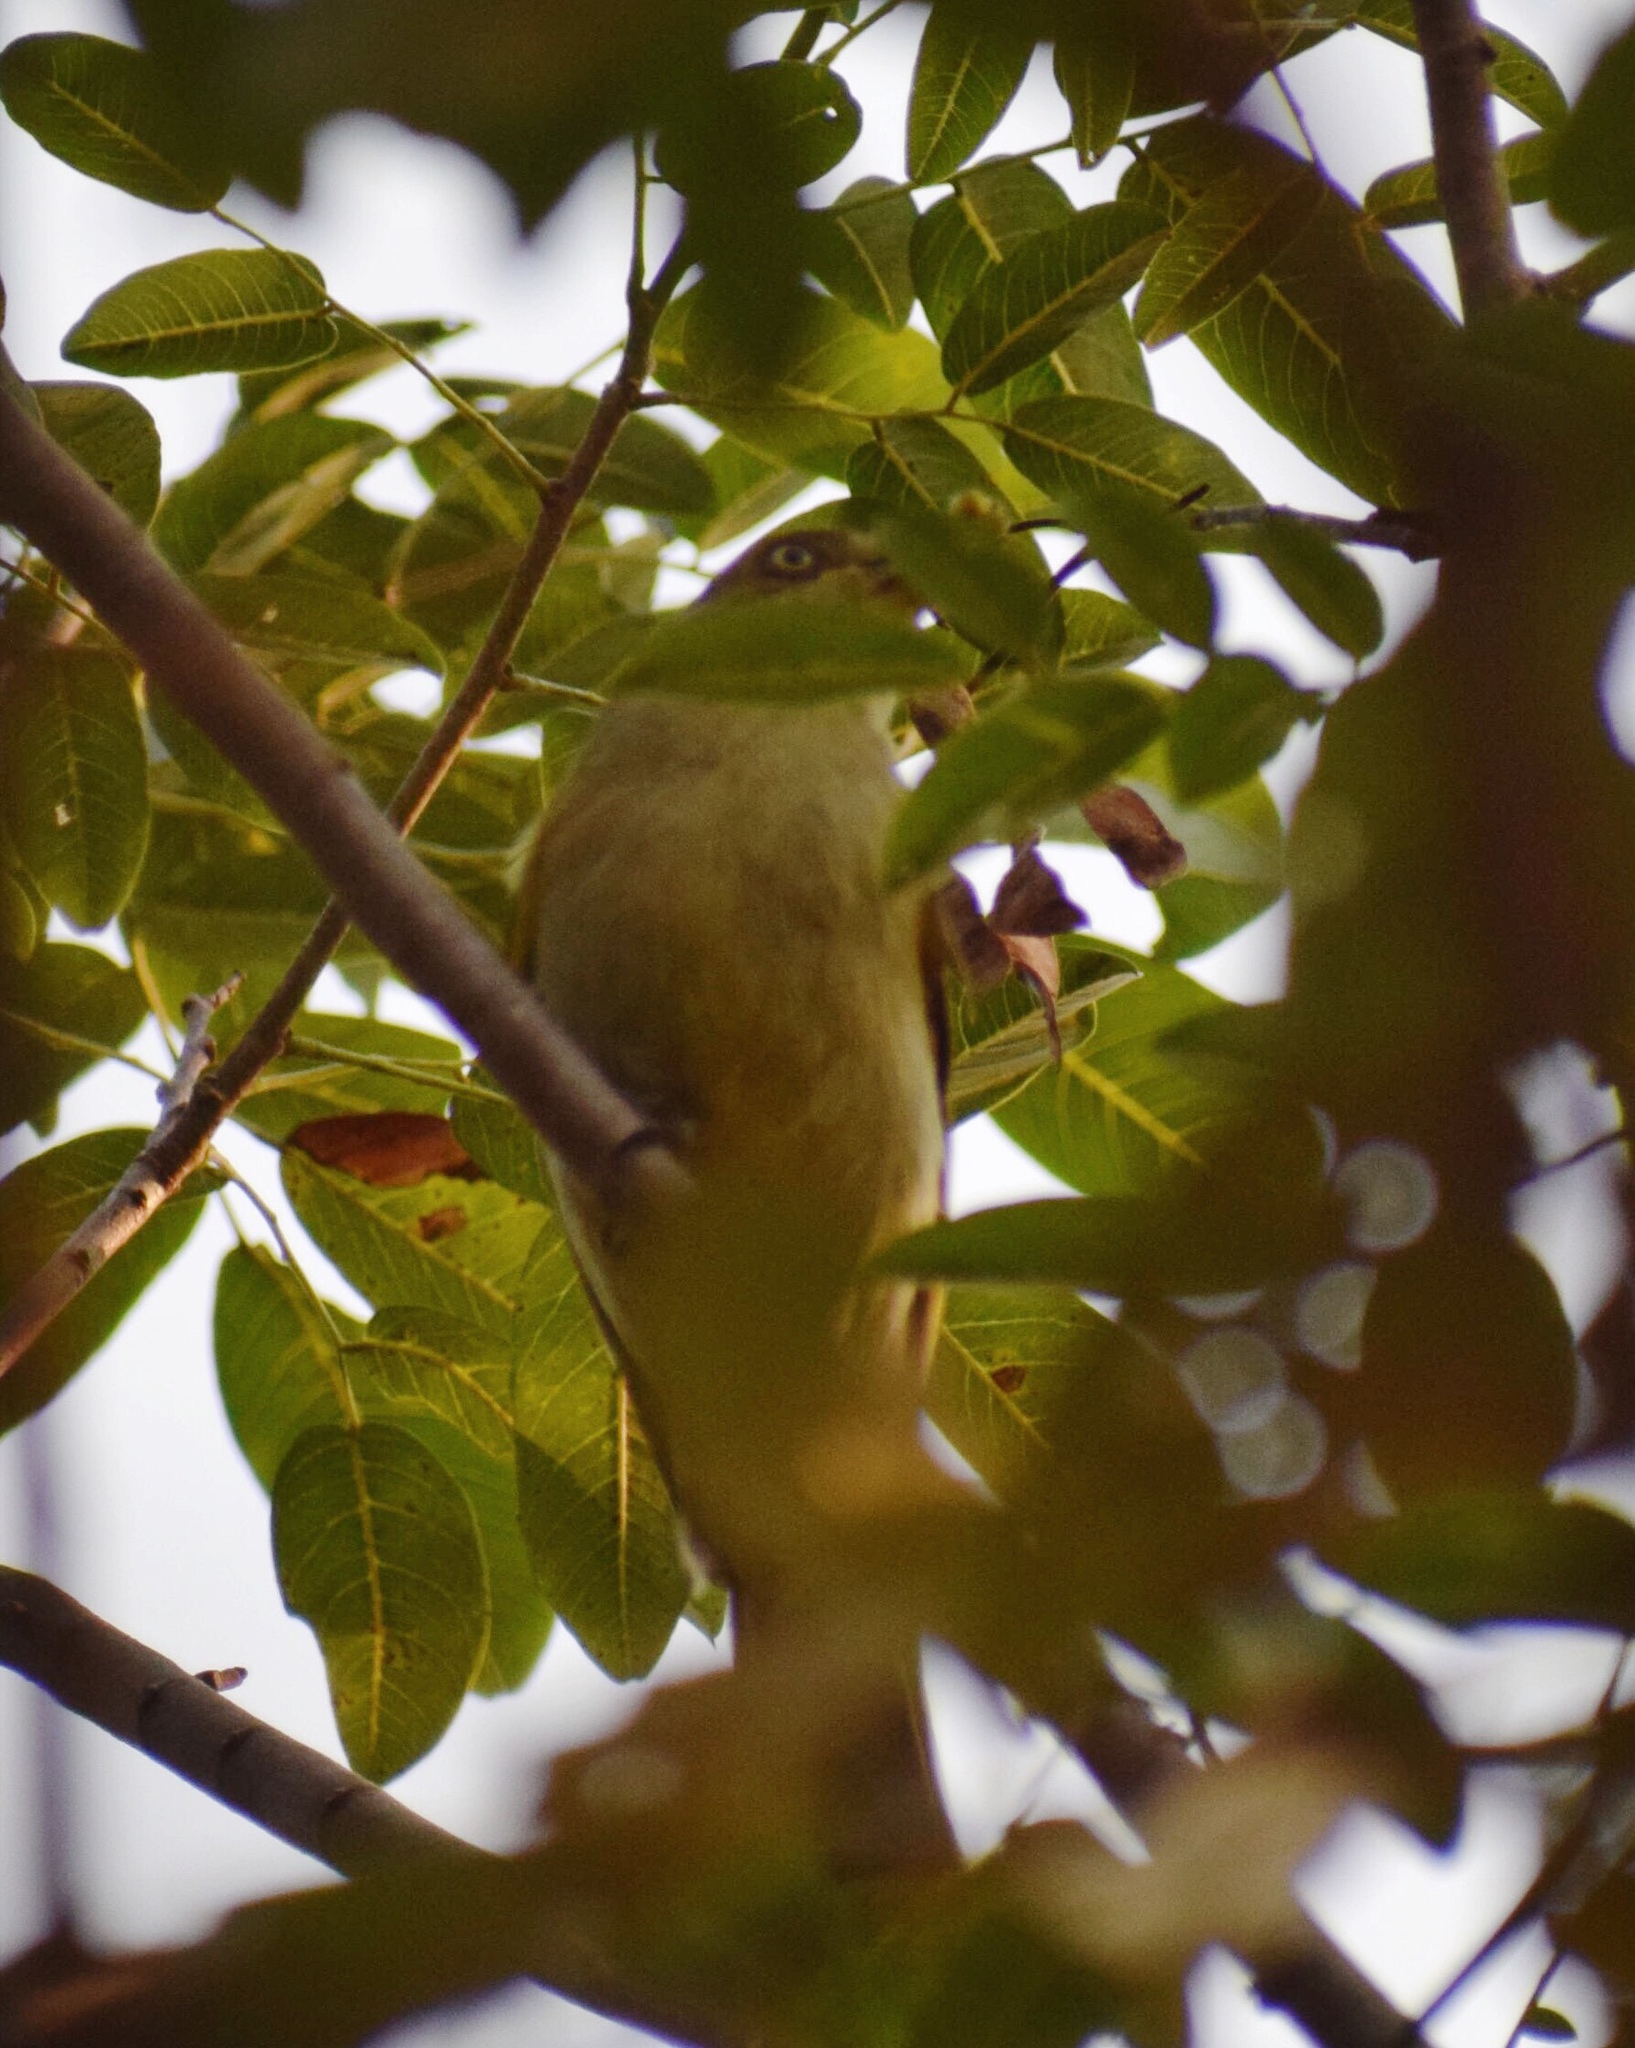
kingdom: Animalia
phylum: Chordata
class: Aves
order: Passeriformes
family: Pycnonotidae
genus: Andropadus
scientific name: Andropadus importunus
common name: Sombre greenbul
